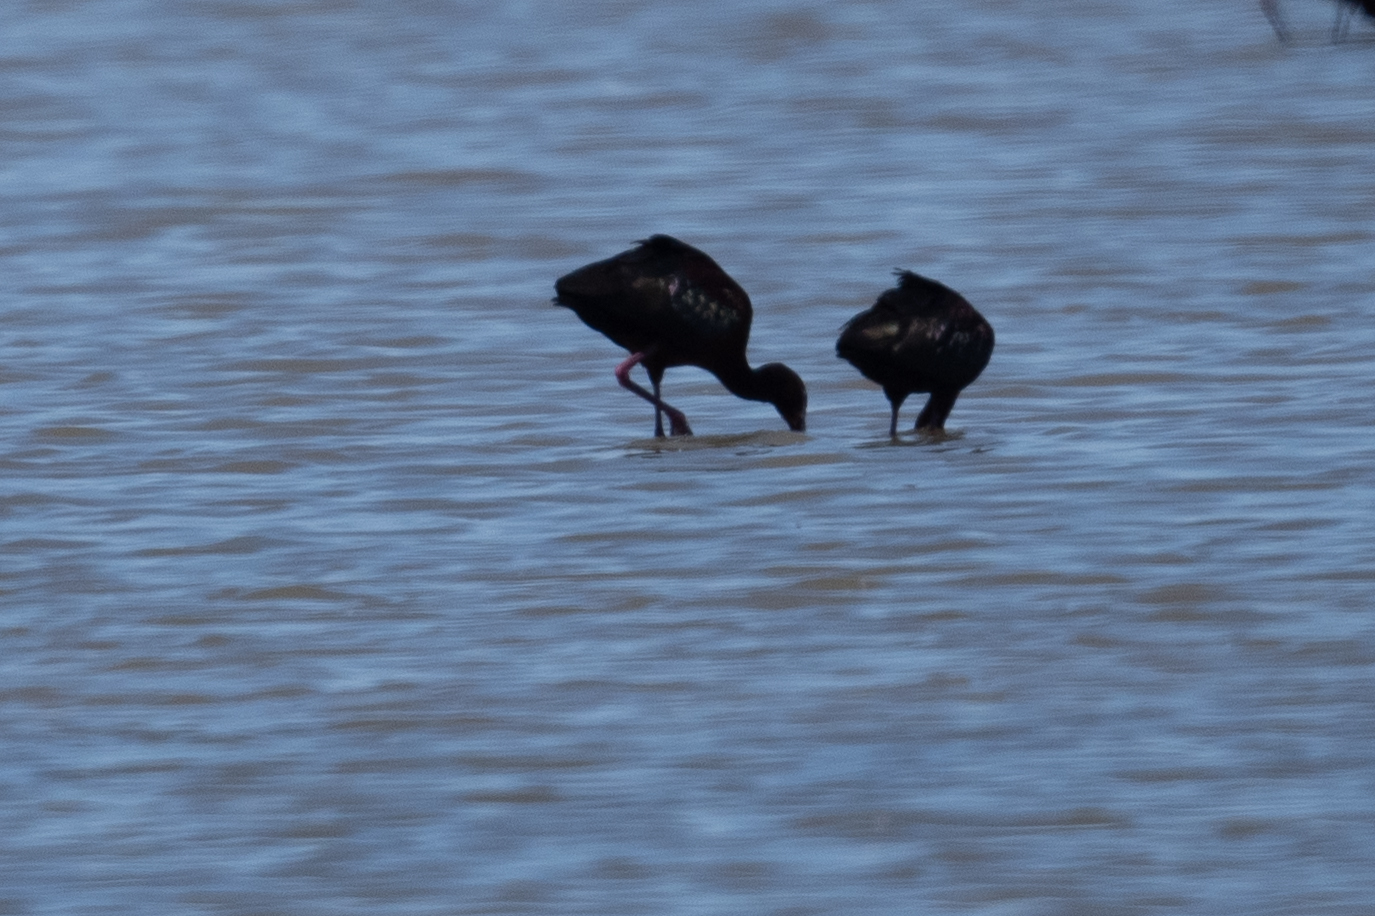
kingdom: Animalia
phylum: Chordata
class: Aves
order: Pelecaniformes
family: Threskiornithidae
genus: Plegadis
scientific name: Plegadis chihi
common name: White-faced ibis
